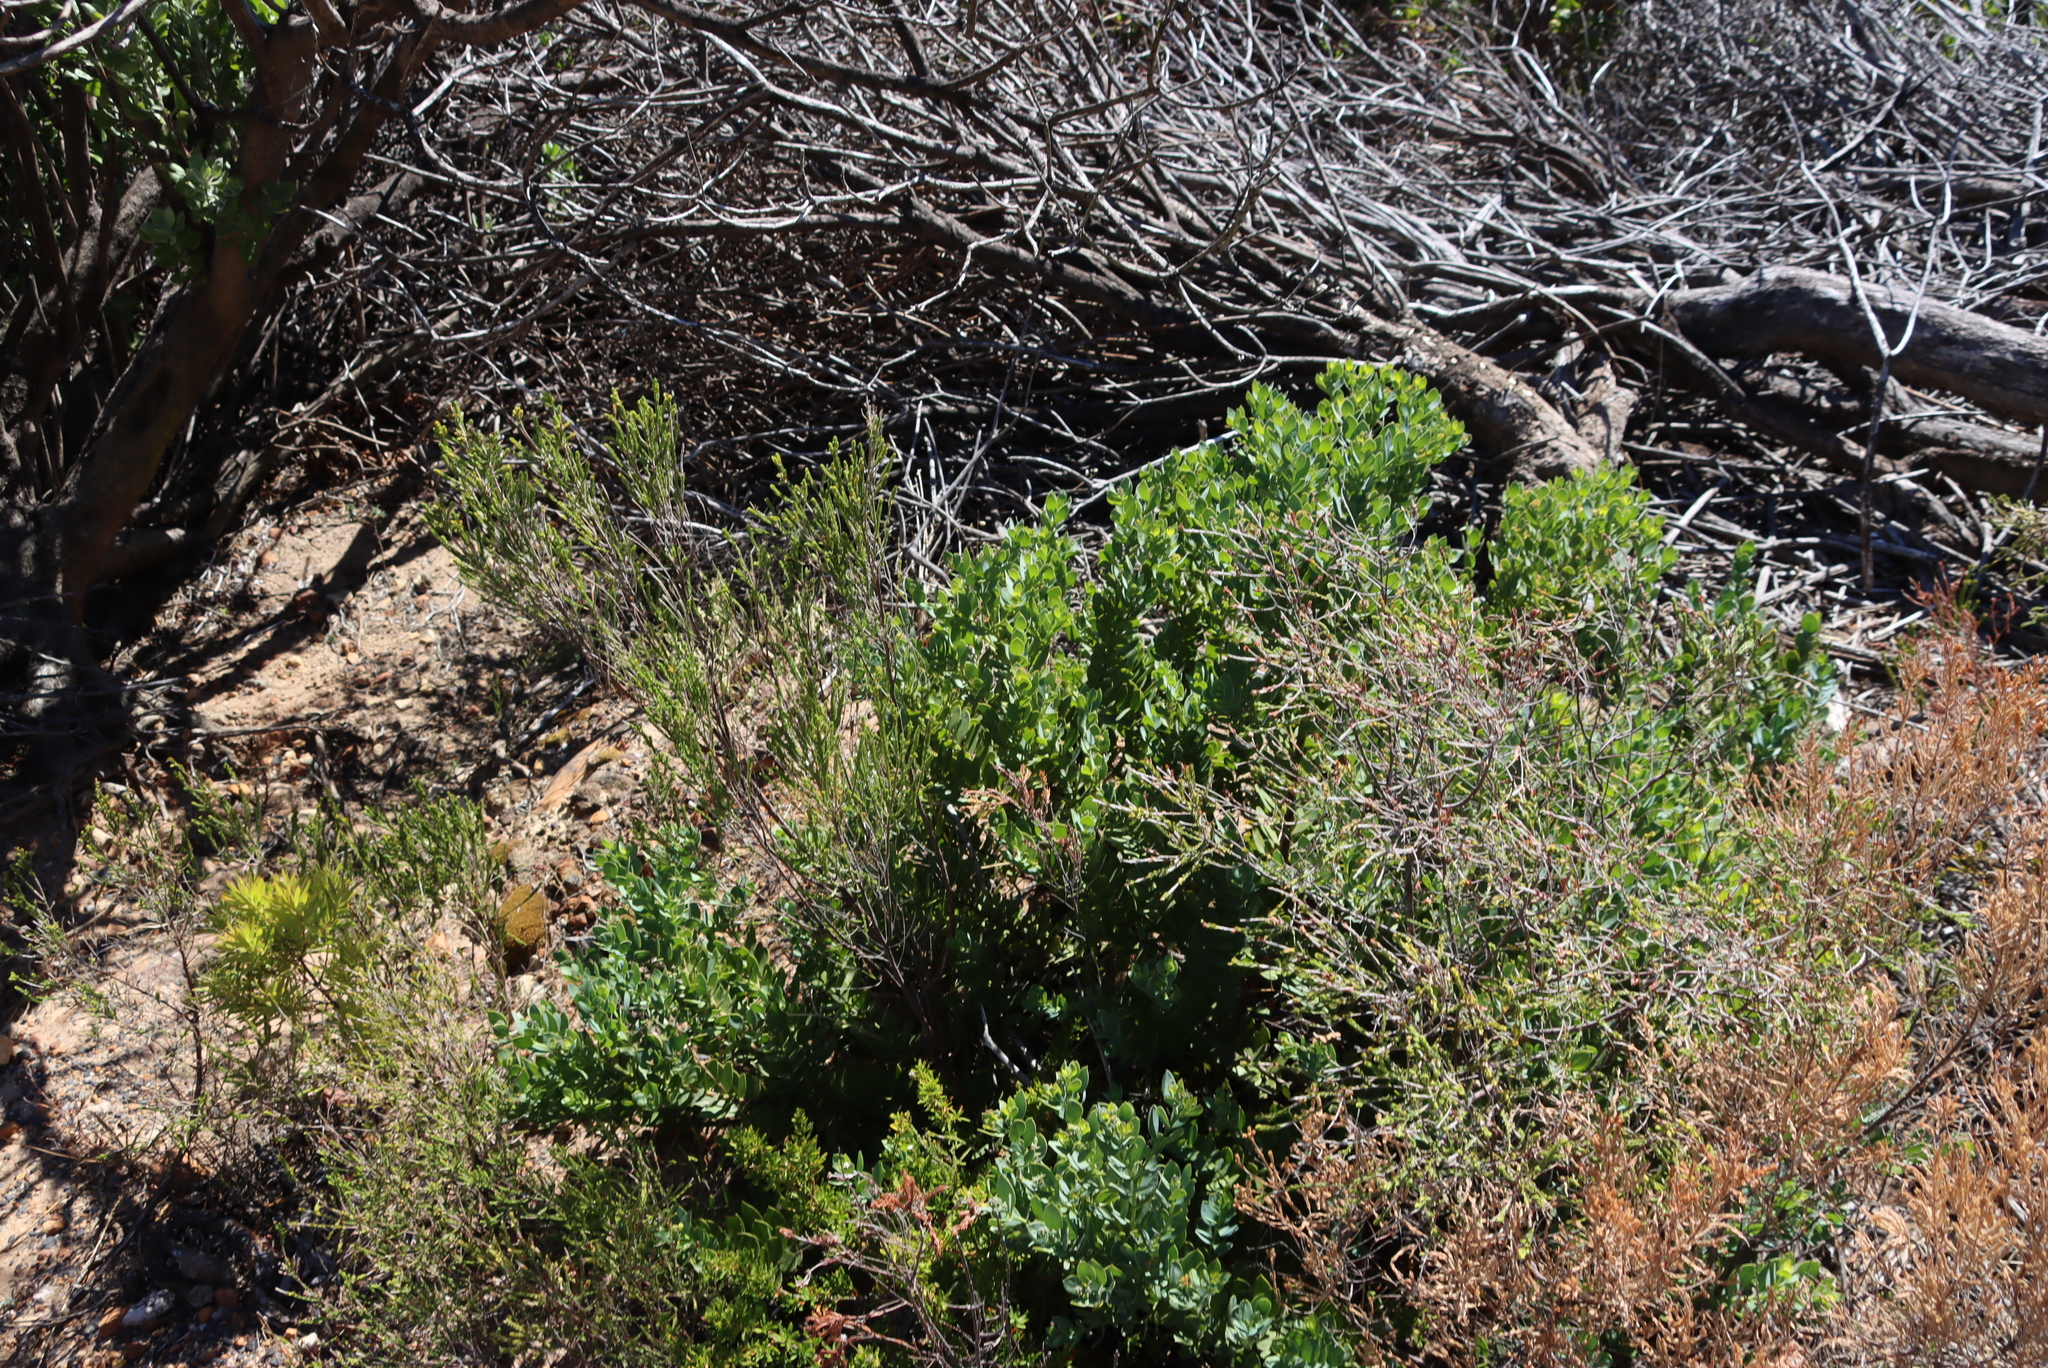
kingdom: Plantae
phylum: Tracheophyta
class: Magnoliopsida
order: Santalales
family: Santalaceae
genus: Osyris
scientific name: Osyris compressa
